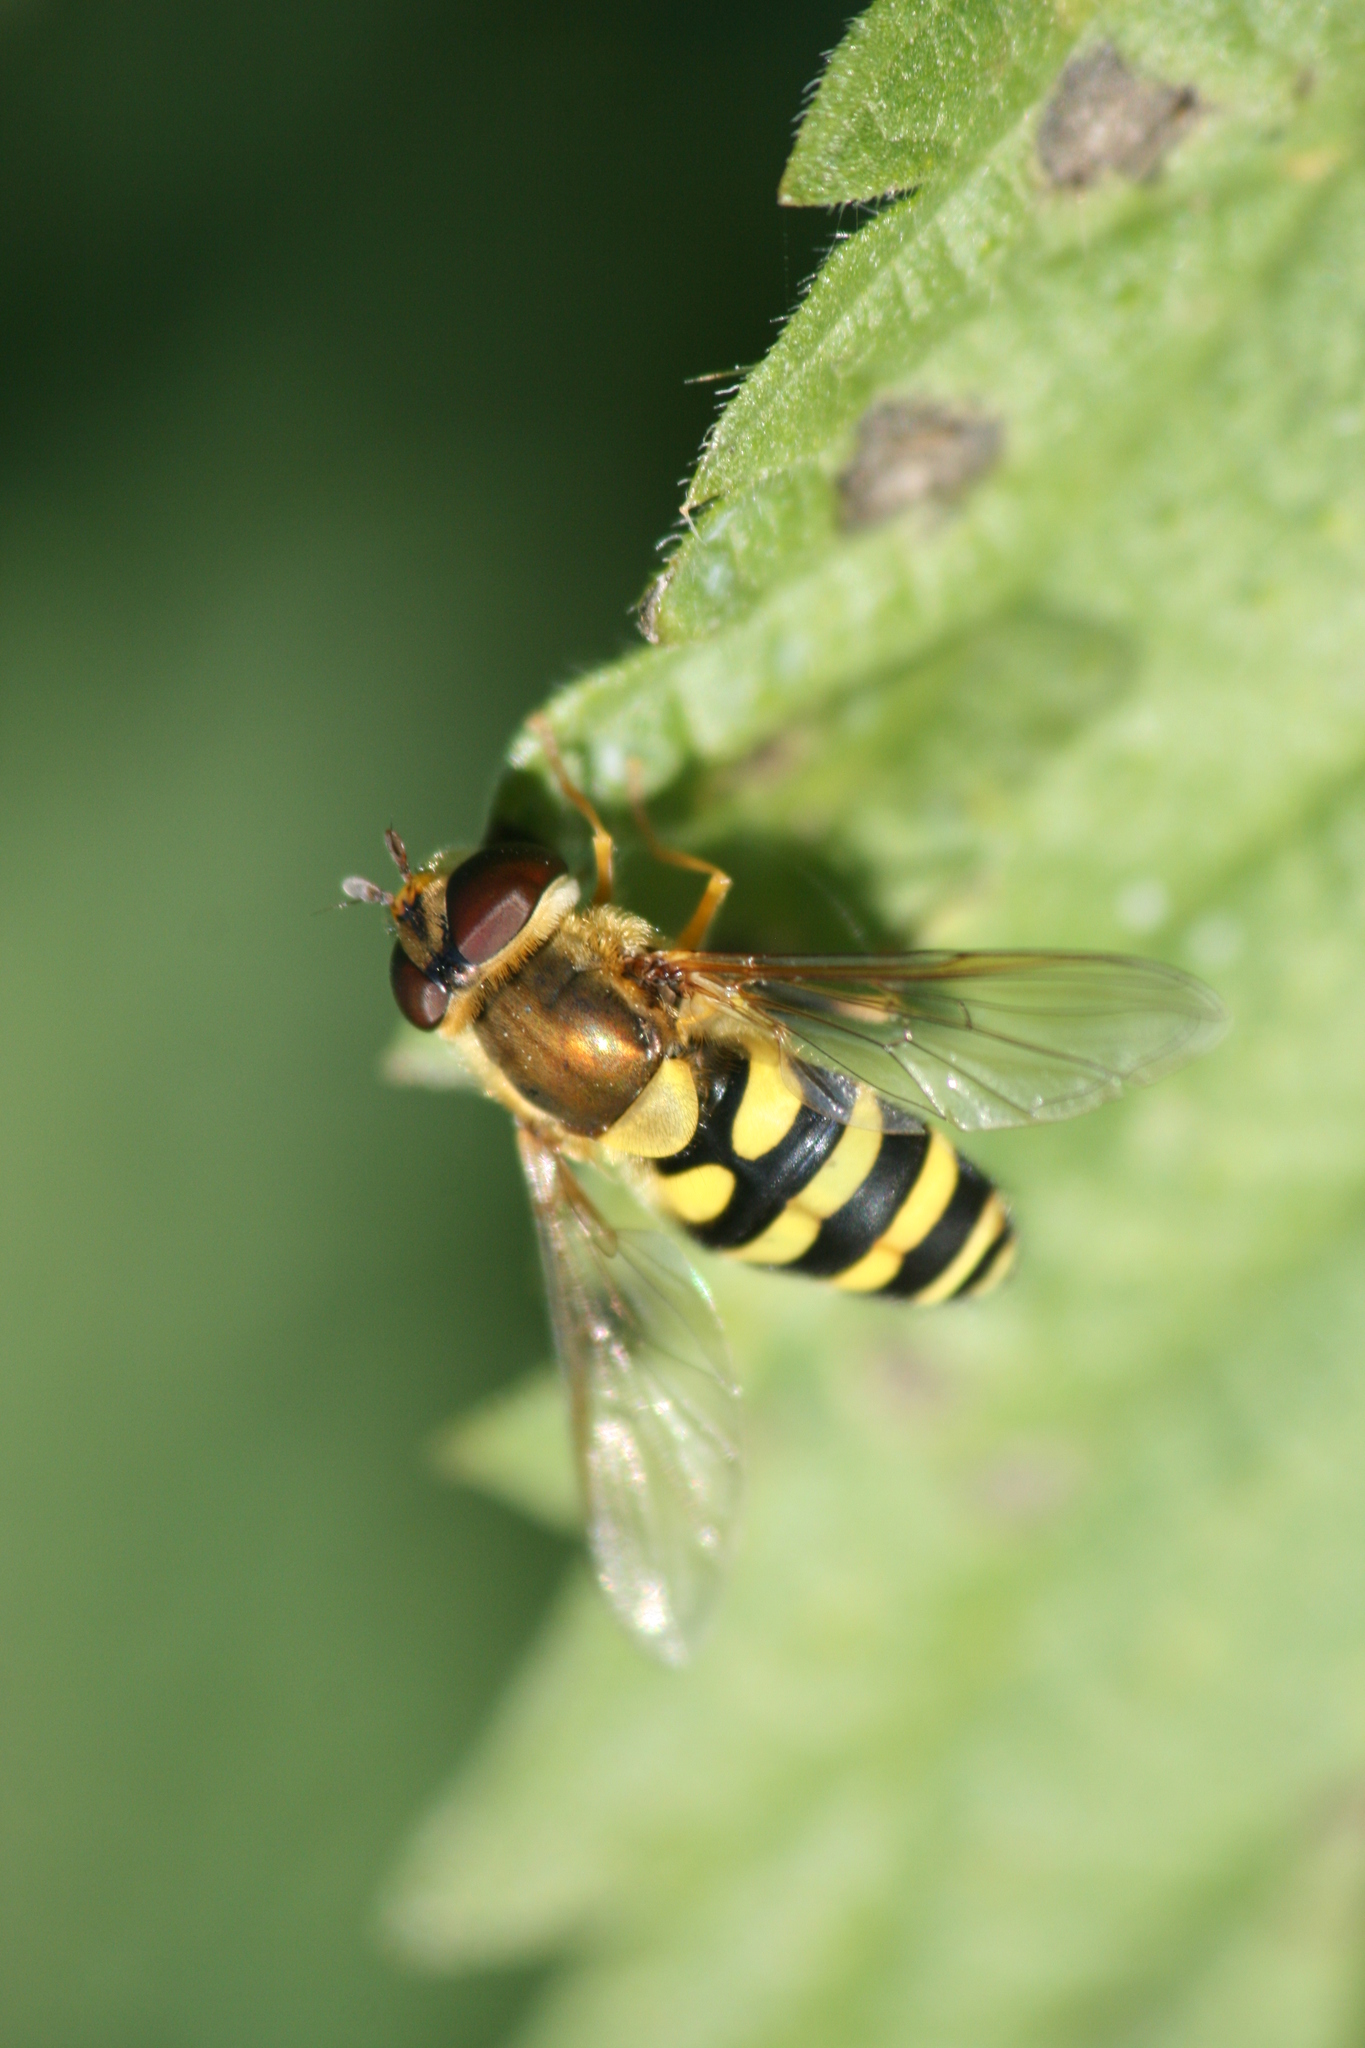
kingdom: Animalia
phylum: Arthropoda
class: Insecta
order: Diptera
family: Syrphidae
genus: Syrphus
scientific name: Syrphus
